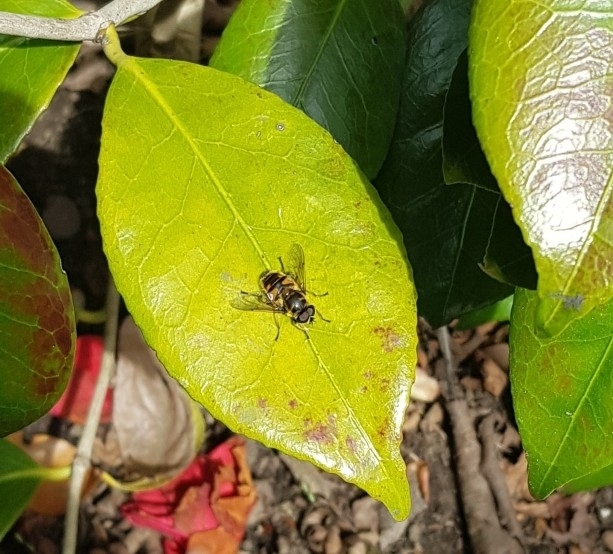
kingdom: Animalia
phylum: Arthropoda
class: Insecta
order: Diptera
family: Syrphidae
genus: Myathropa
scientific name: Myathropa florea
